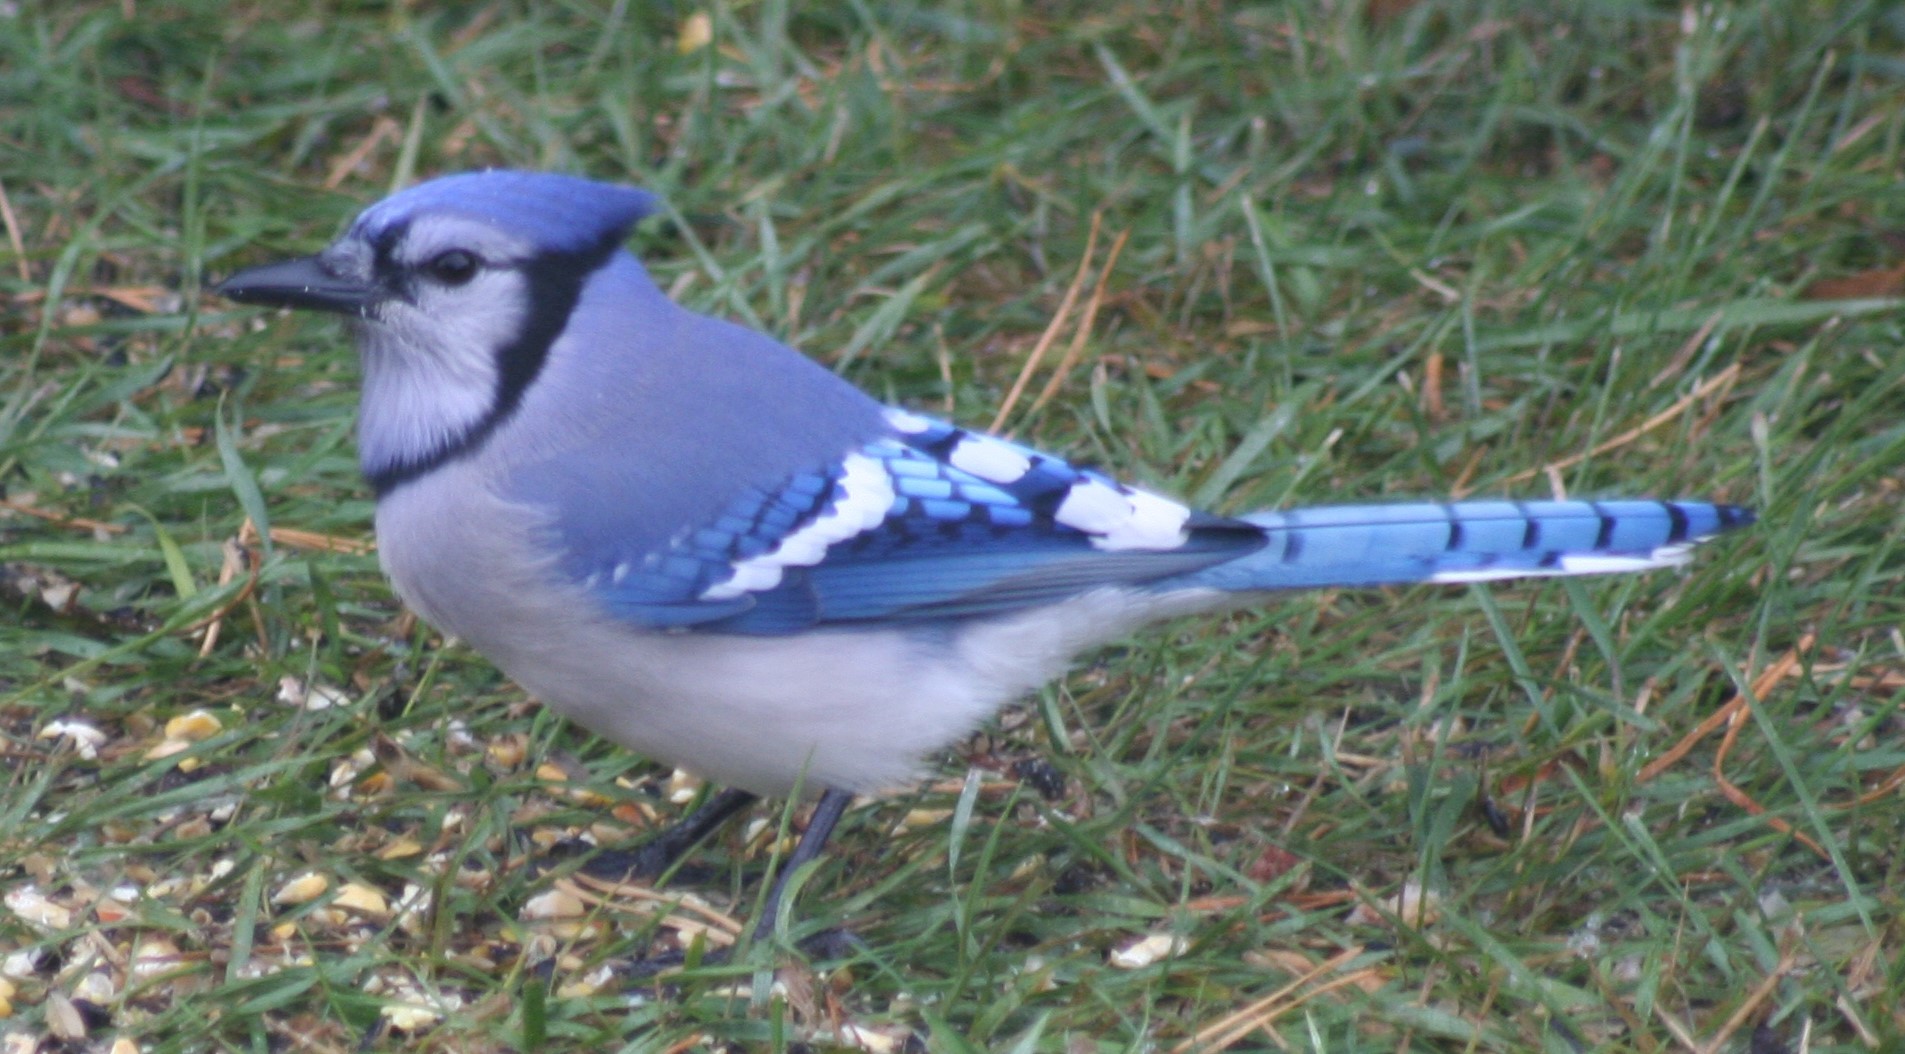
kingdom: Animalia
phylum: Chordata
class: Aves
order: Passeriformes
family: Corvidae
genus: Cyanocitta
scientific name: Cyanocitta cristata
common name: Blue jay
